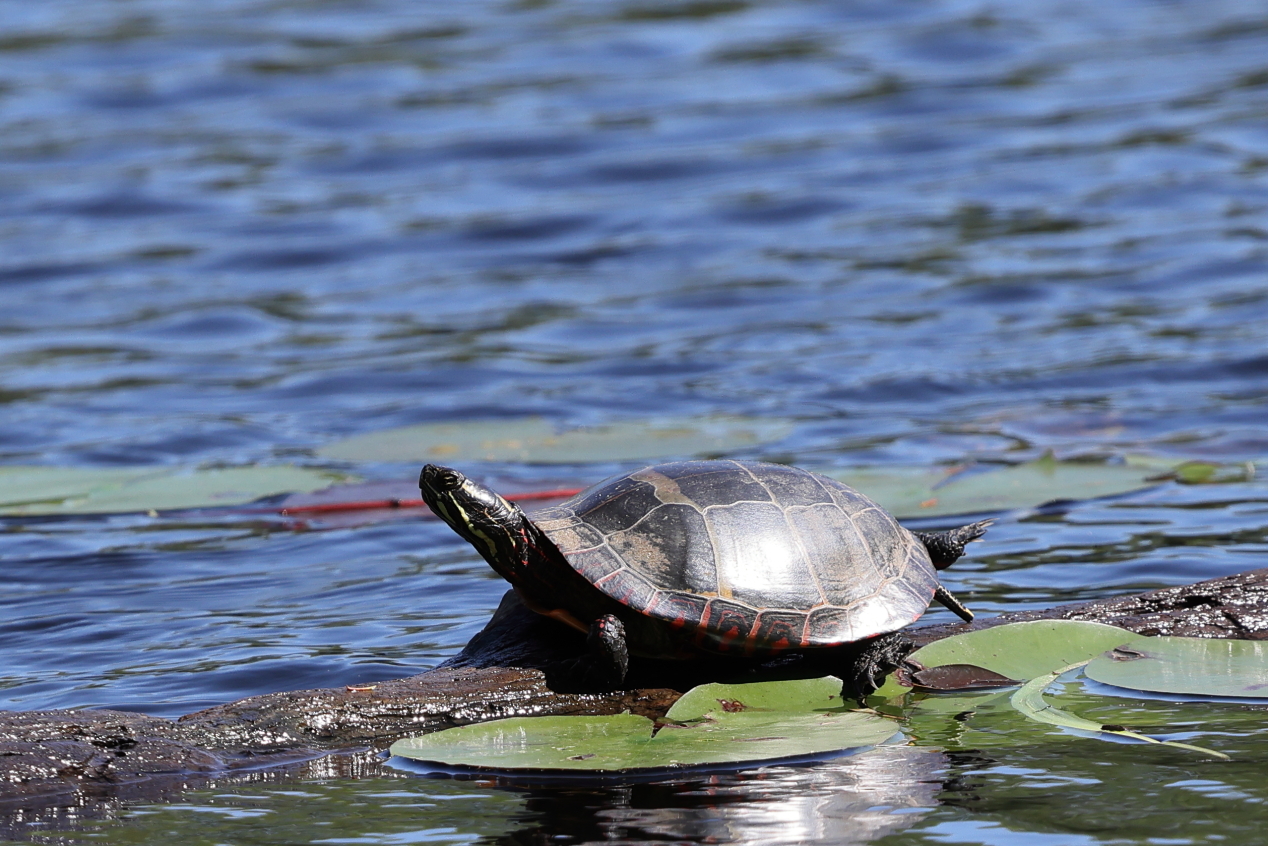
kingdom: Animalia
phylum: Chordata
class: Testudines
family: Emydidae
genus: Chrysemys
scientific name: Chrysemys picta
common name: Painted turtle
